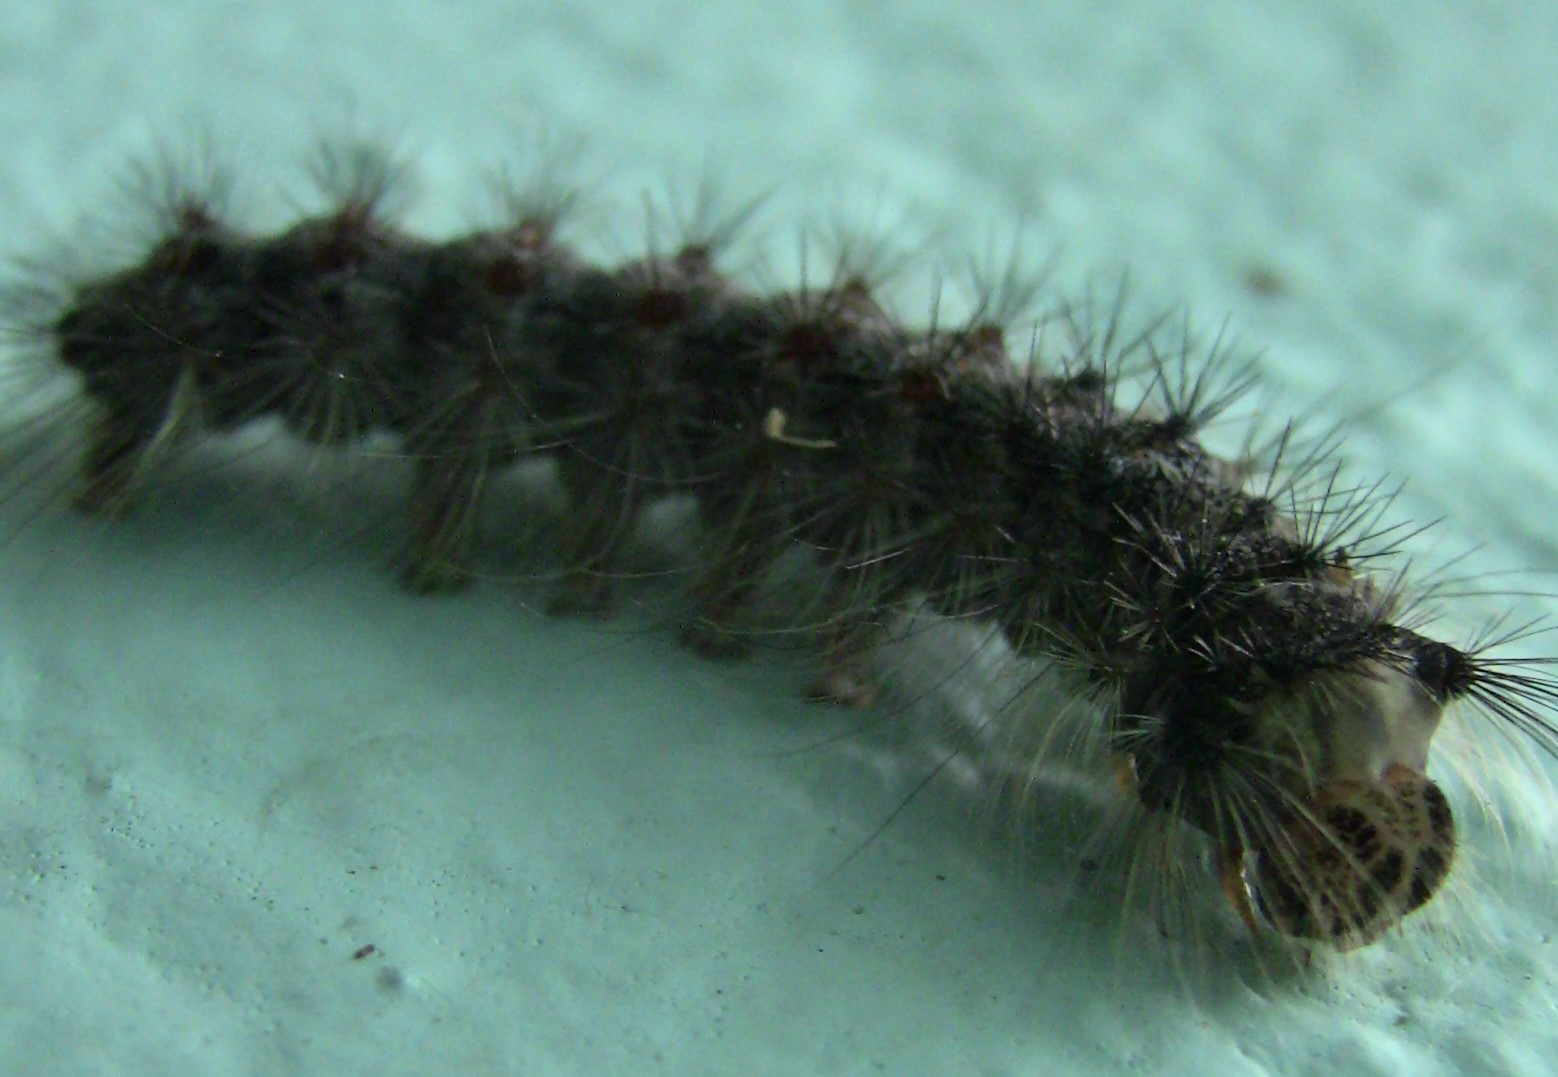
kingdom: Animalia
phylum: Arthropoda
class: Insecta
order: Lepidoptera
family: Erebidae
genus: Lymantria
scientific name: Lymantria dispar
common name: Gypsy moth
